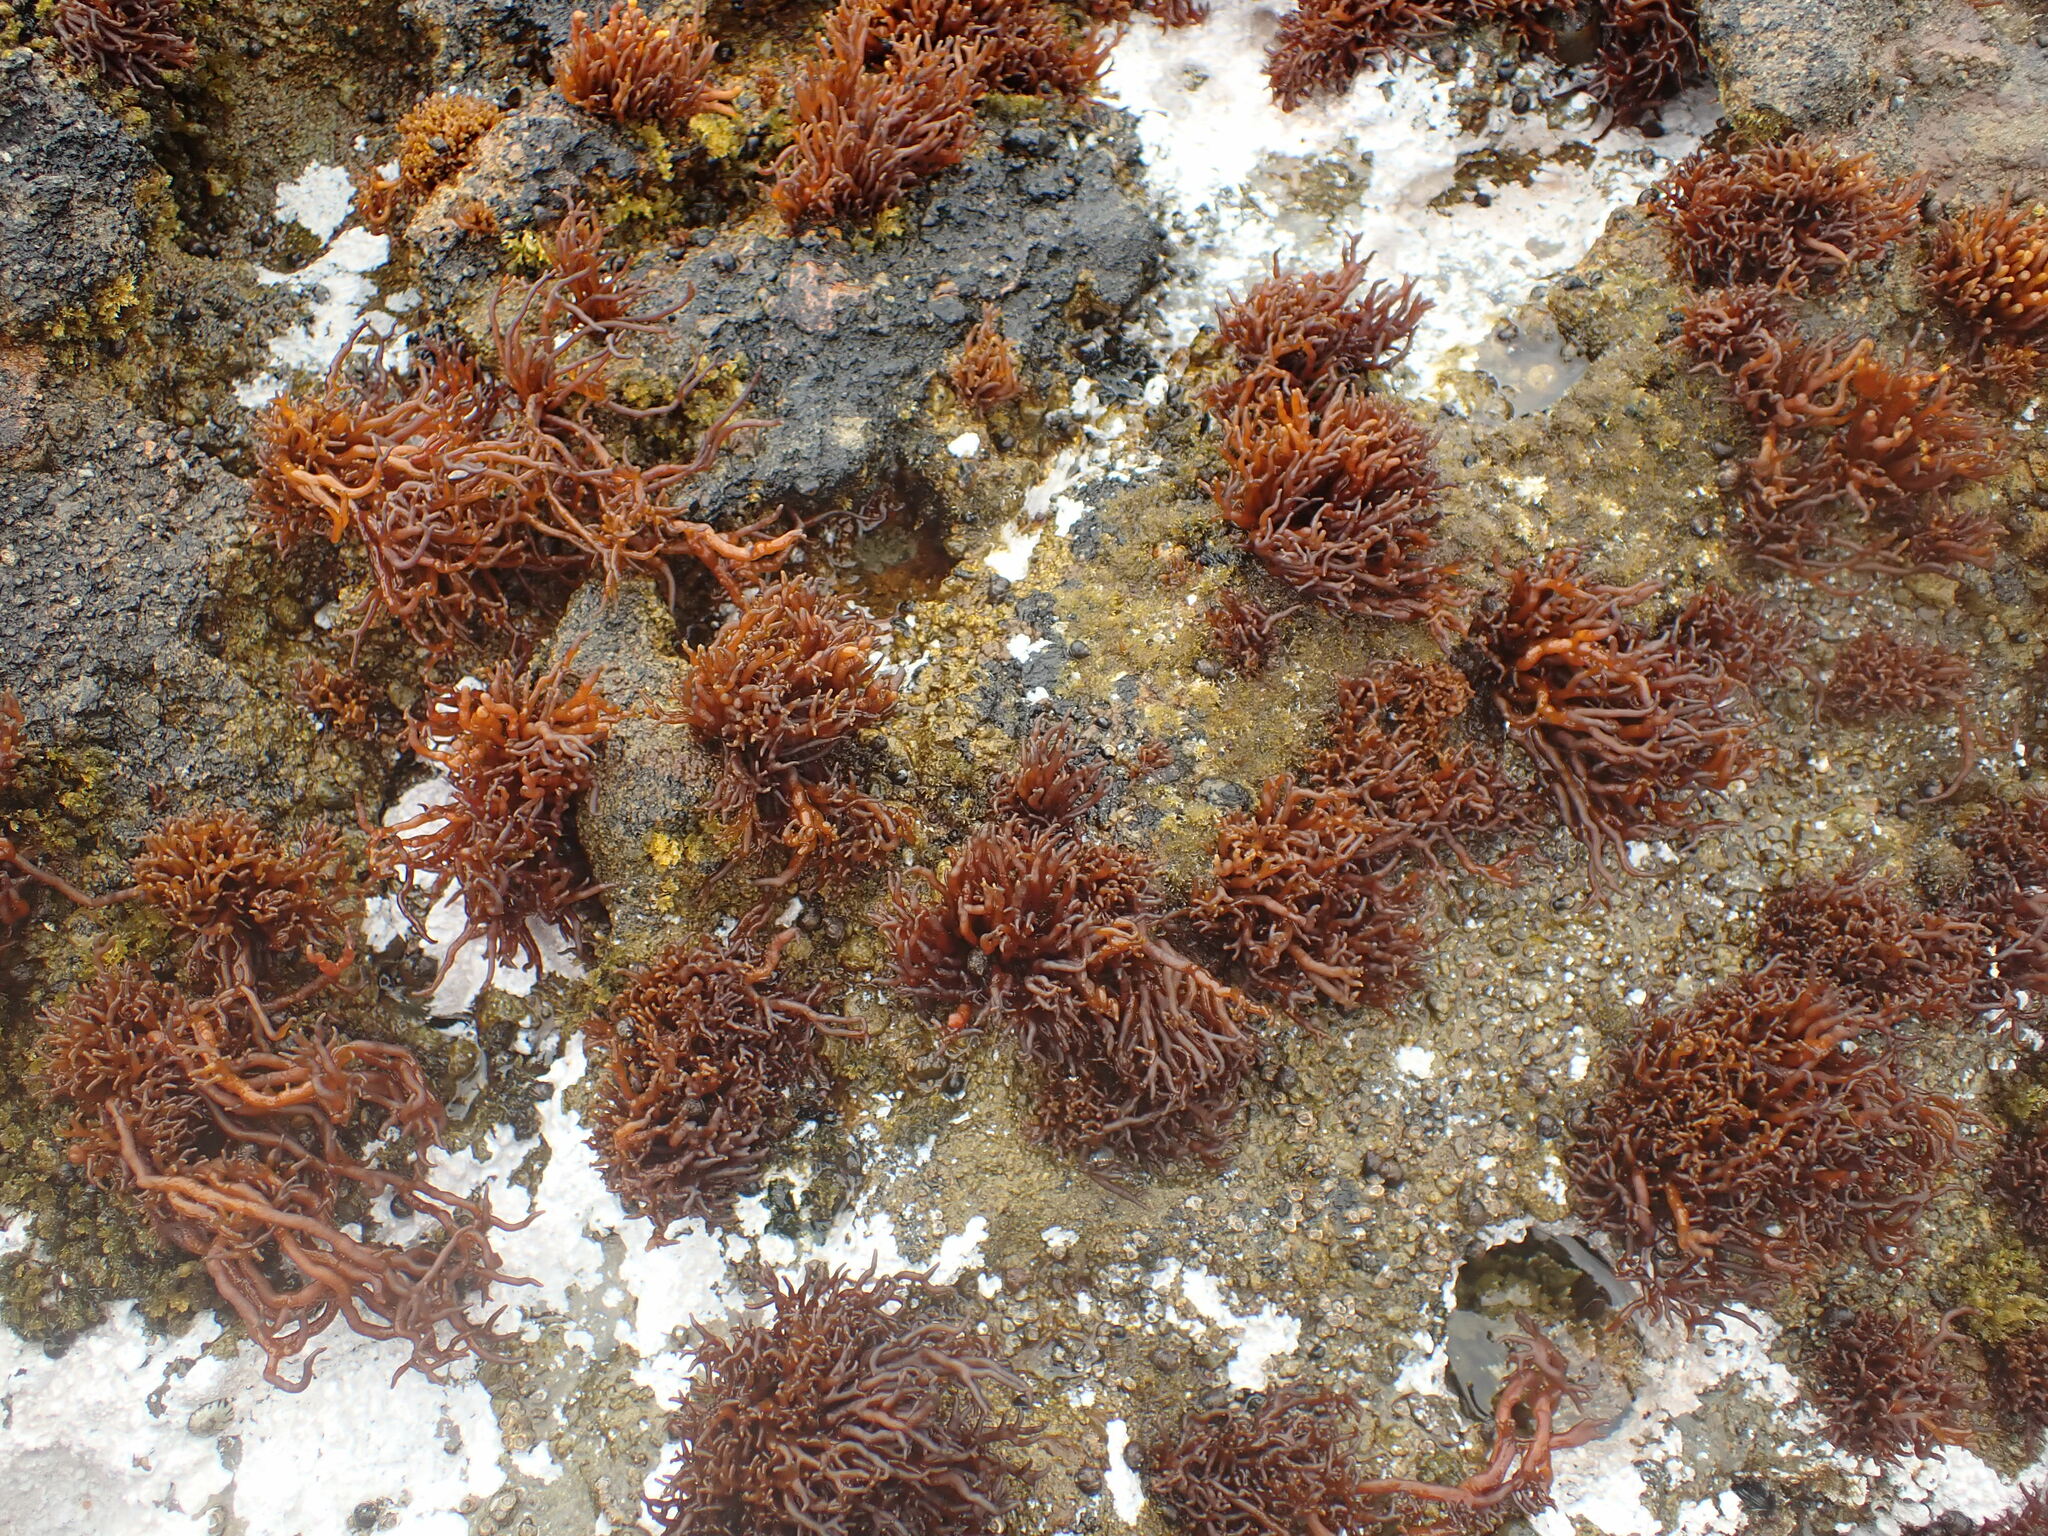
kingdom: Plantae
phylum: Rhodophyta
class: Florideophyceae
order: Hildenbrandiales
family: Hildenbrandiaceae
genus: Apophlaea
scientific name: Apophlaea lyallii
